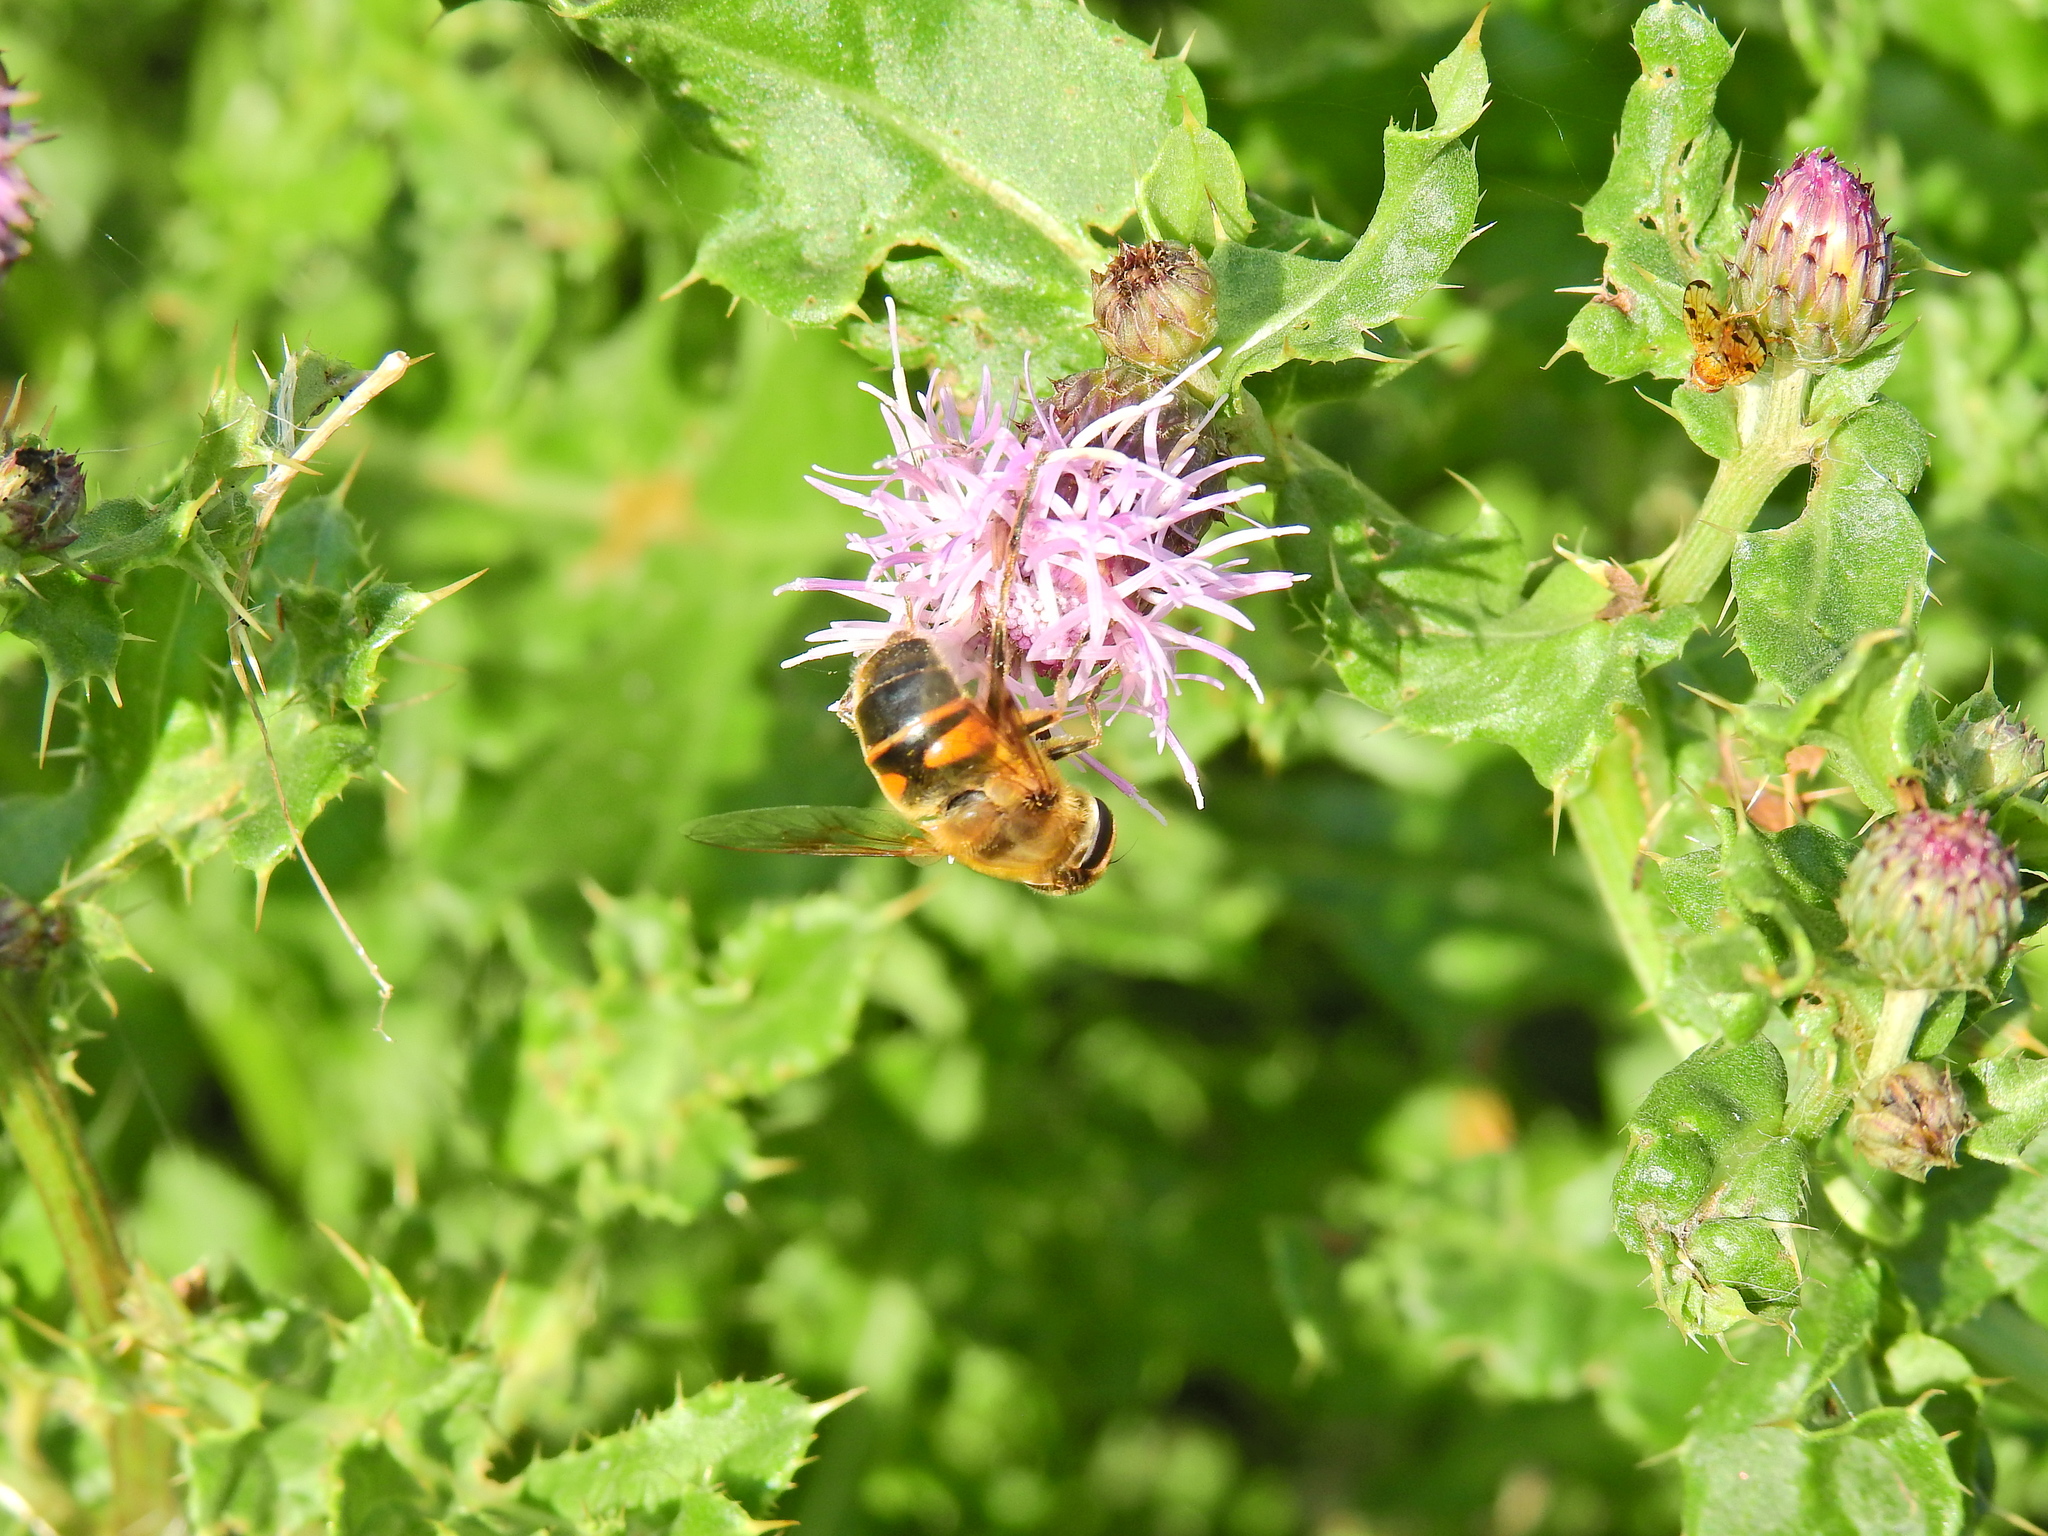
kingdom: Animalia
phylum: Arthropoda
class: Insecta
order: Diptera
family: Syrphidae
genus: Eristalis
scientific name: Eristalis tenax
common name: Drone fly
